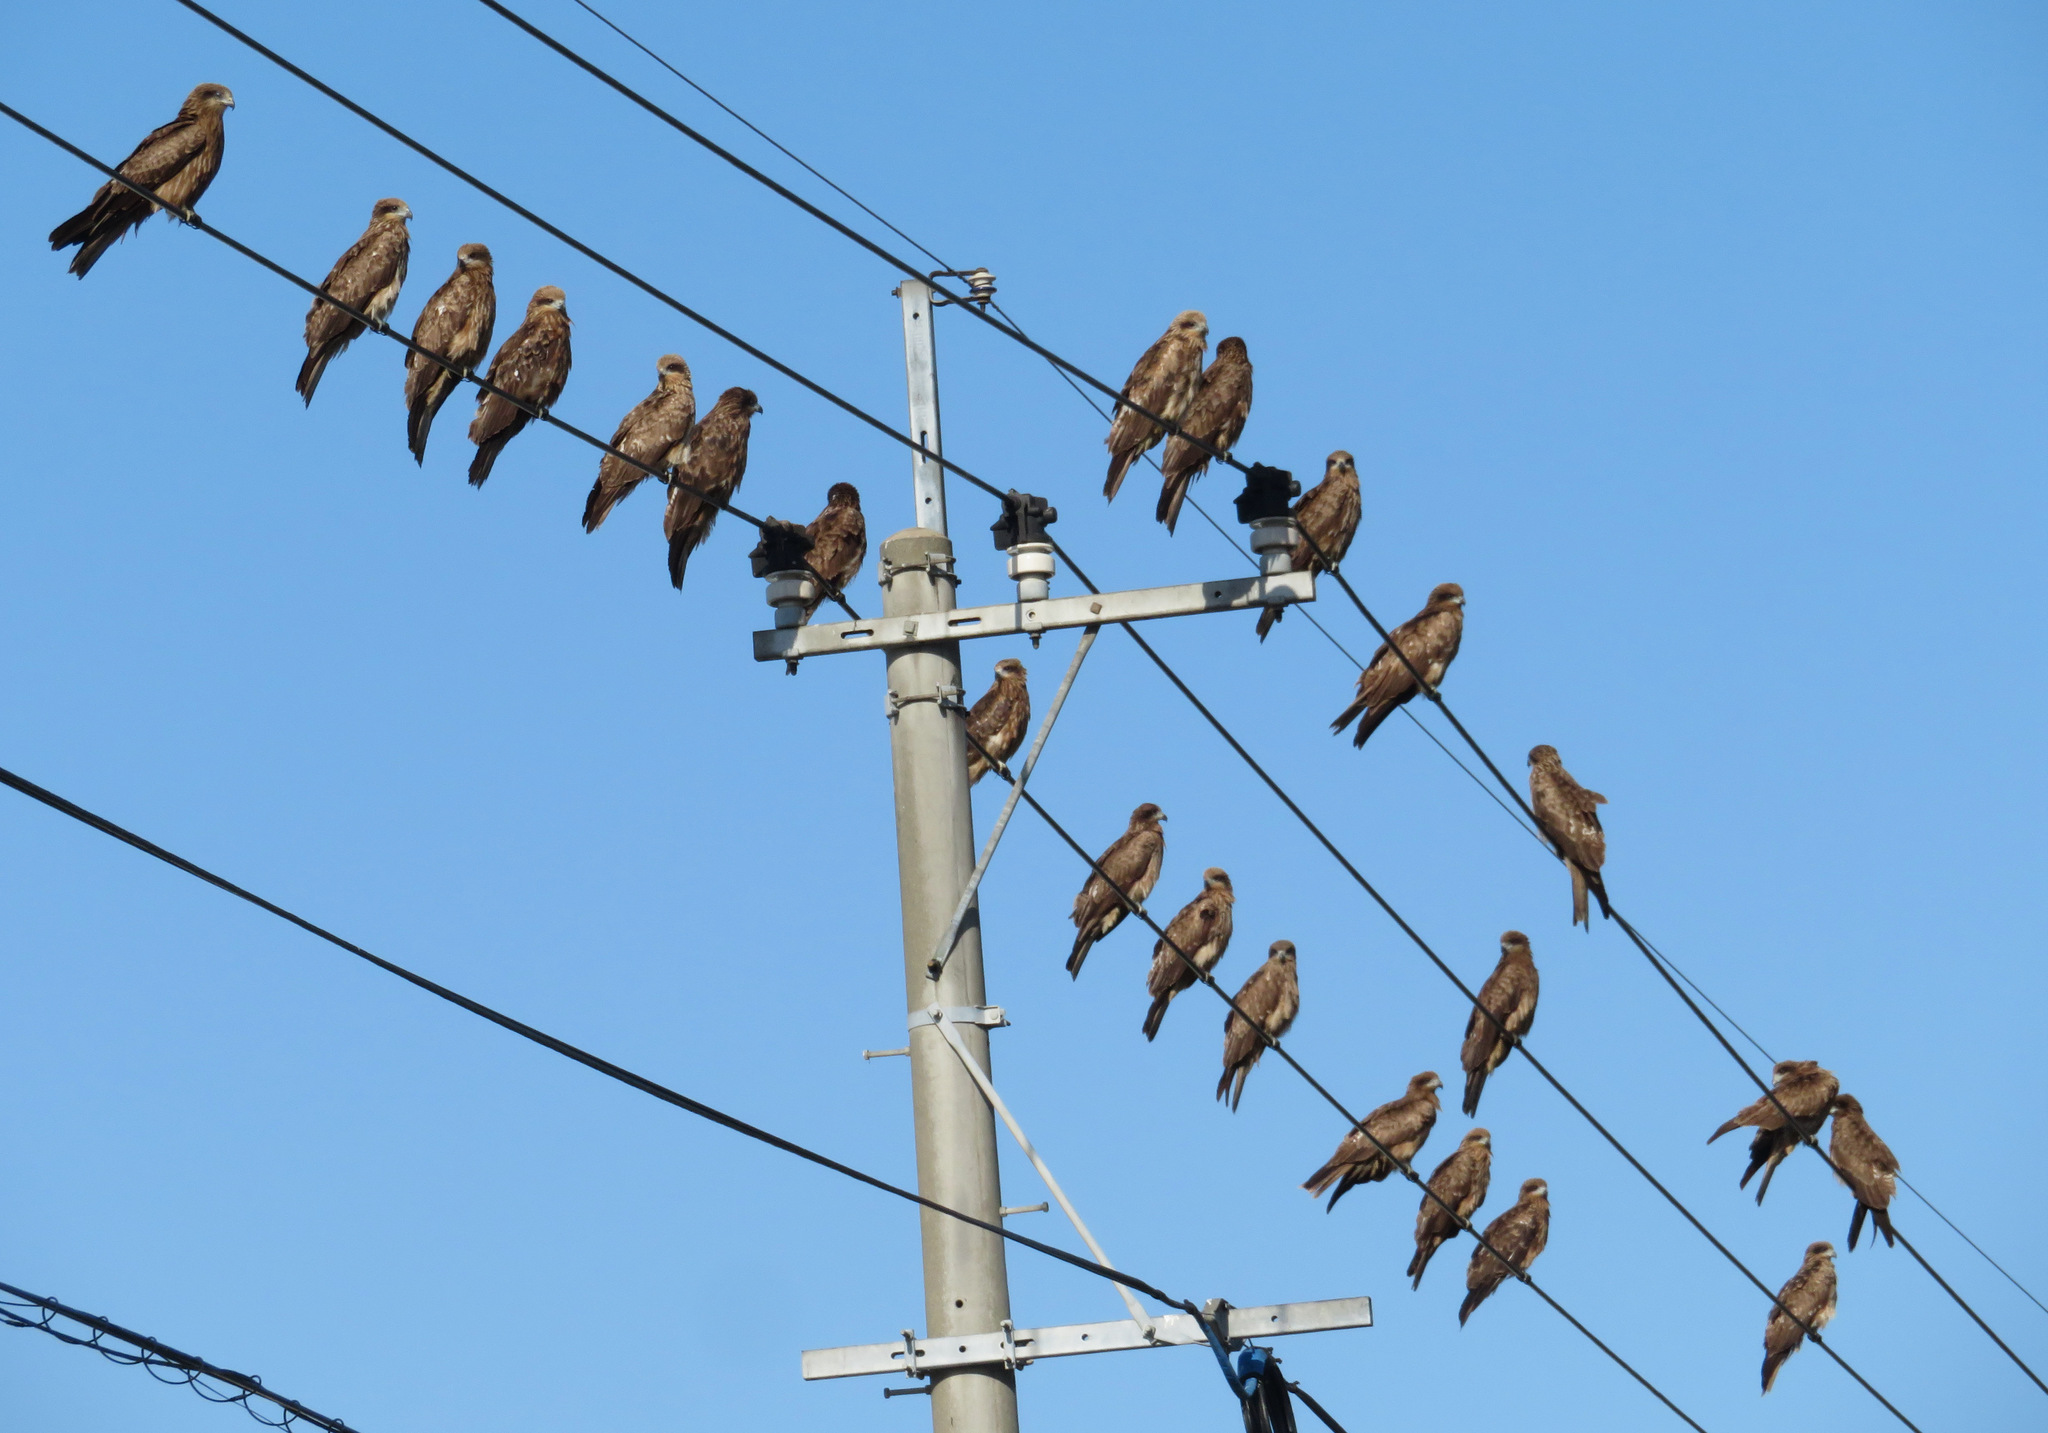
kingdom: Animalia
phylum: Chordata
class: Aves
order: Accipitriformes
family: Accipitridae
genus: Milvus
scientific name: Milvus migrans
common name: Black kite
